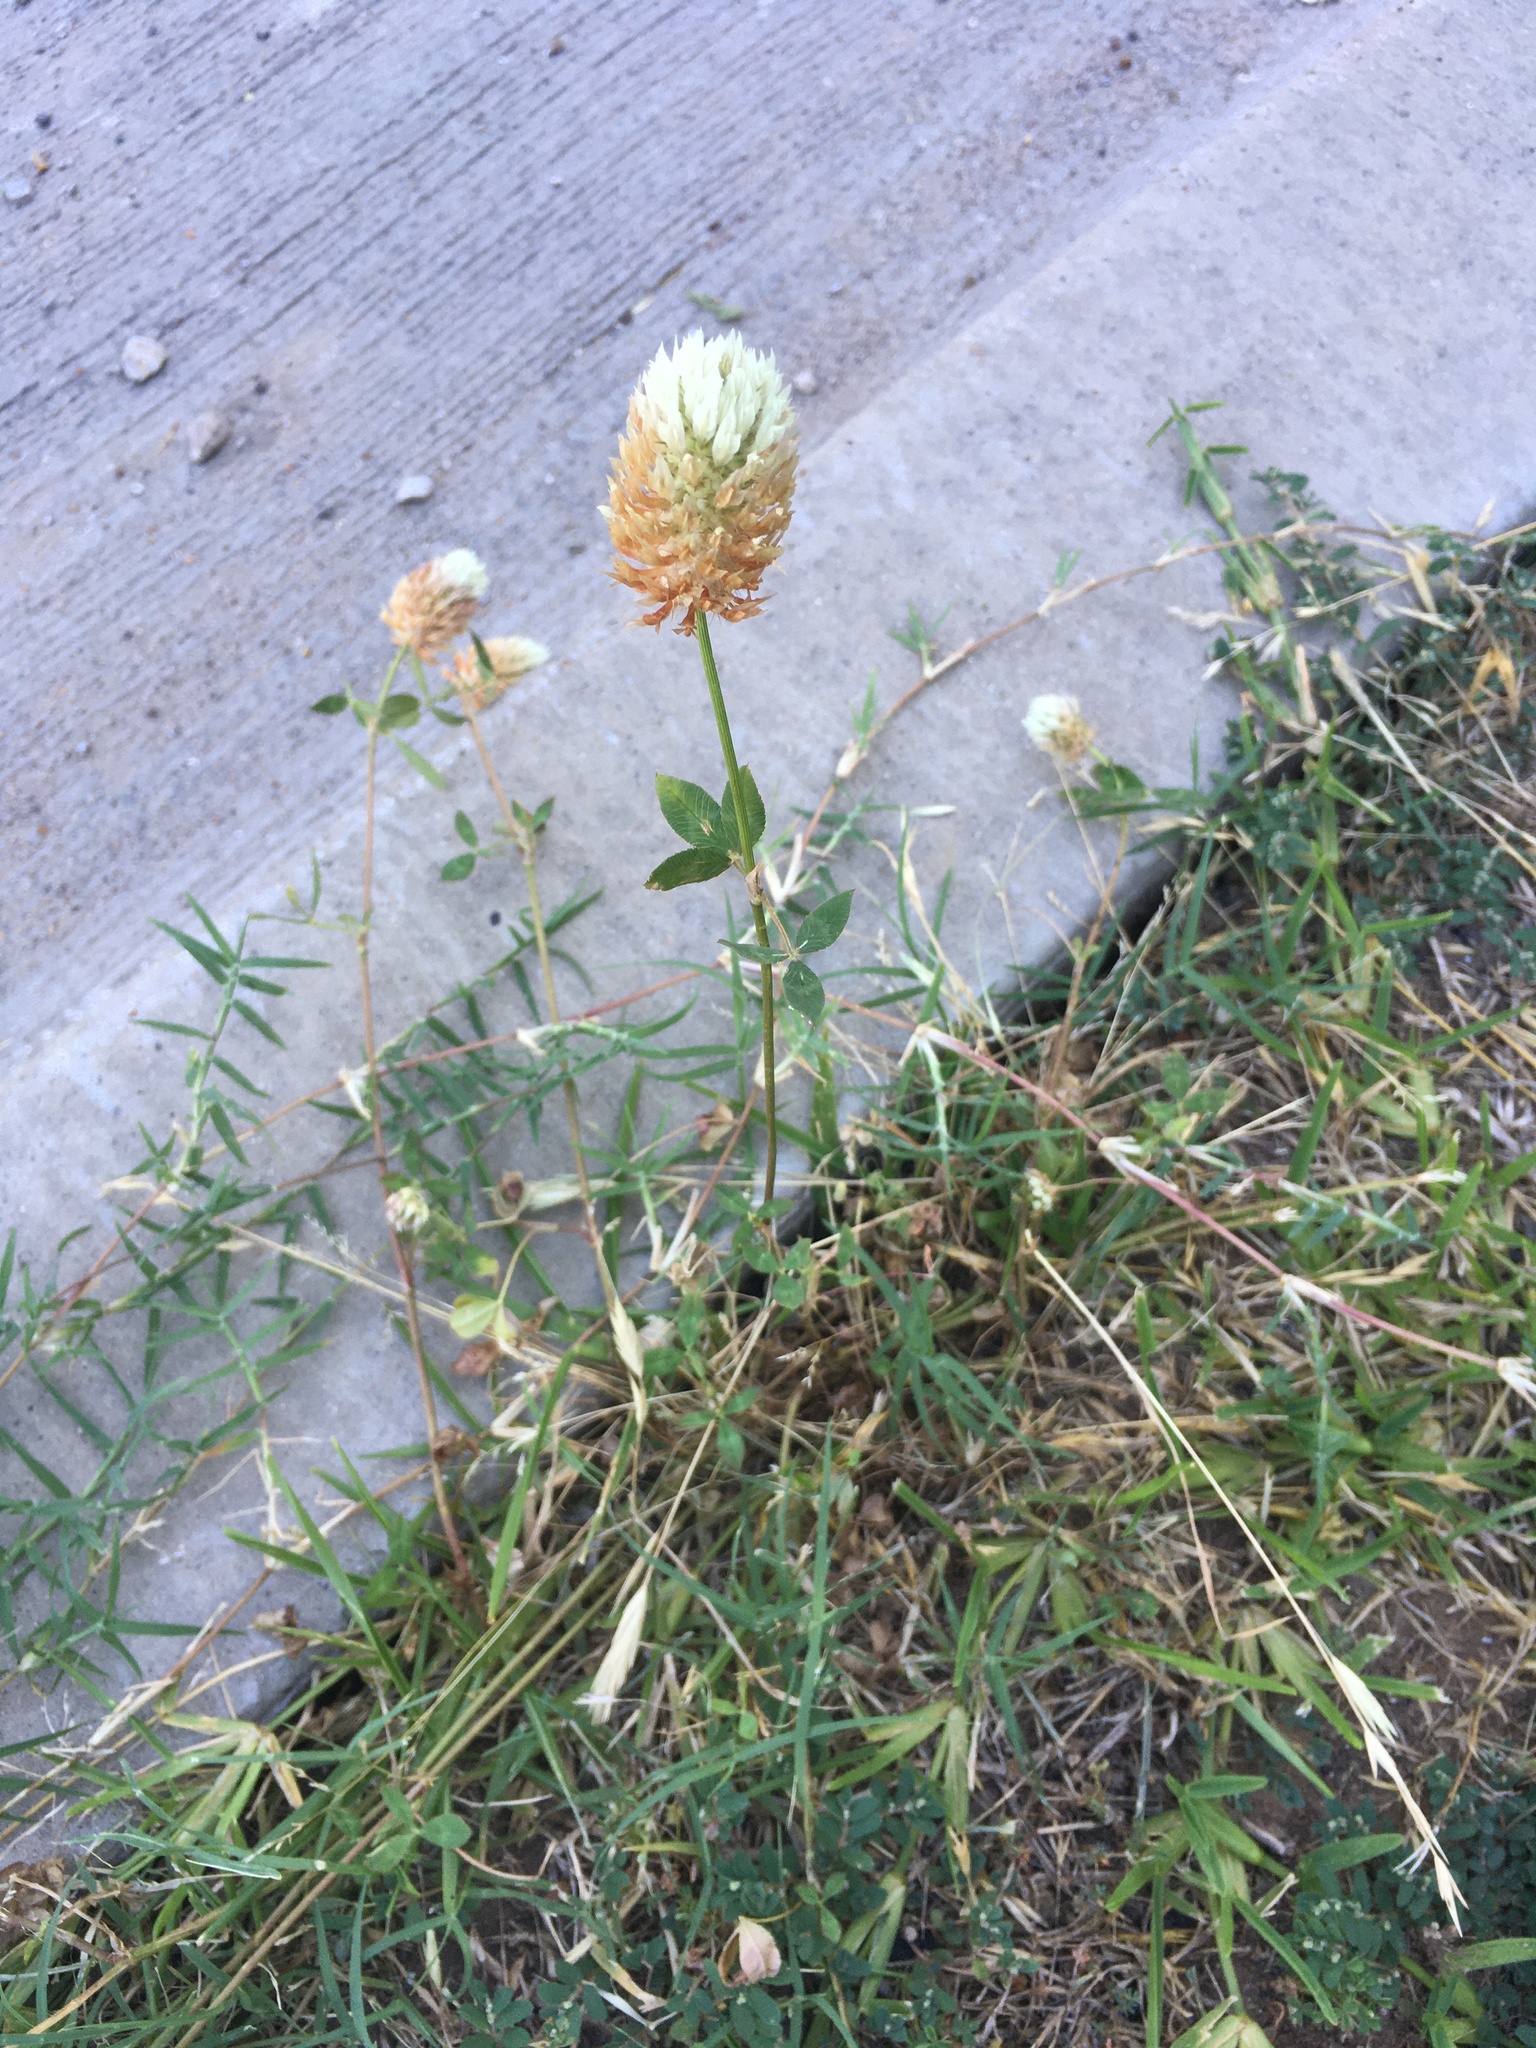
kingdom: Plantae
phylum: Tracheophyta
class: Magnoliopsida
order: Fabales
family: Fabaceae
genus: Trifolium
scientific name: Trifolium vesiculosum
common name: Arrowleaf clover
